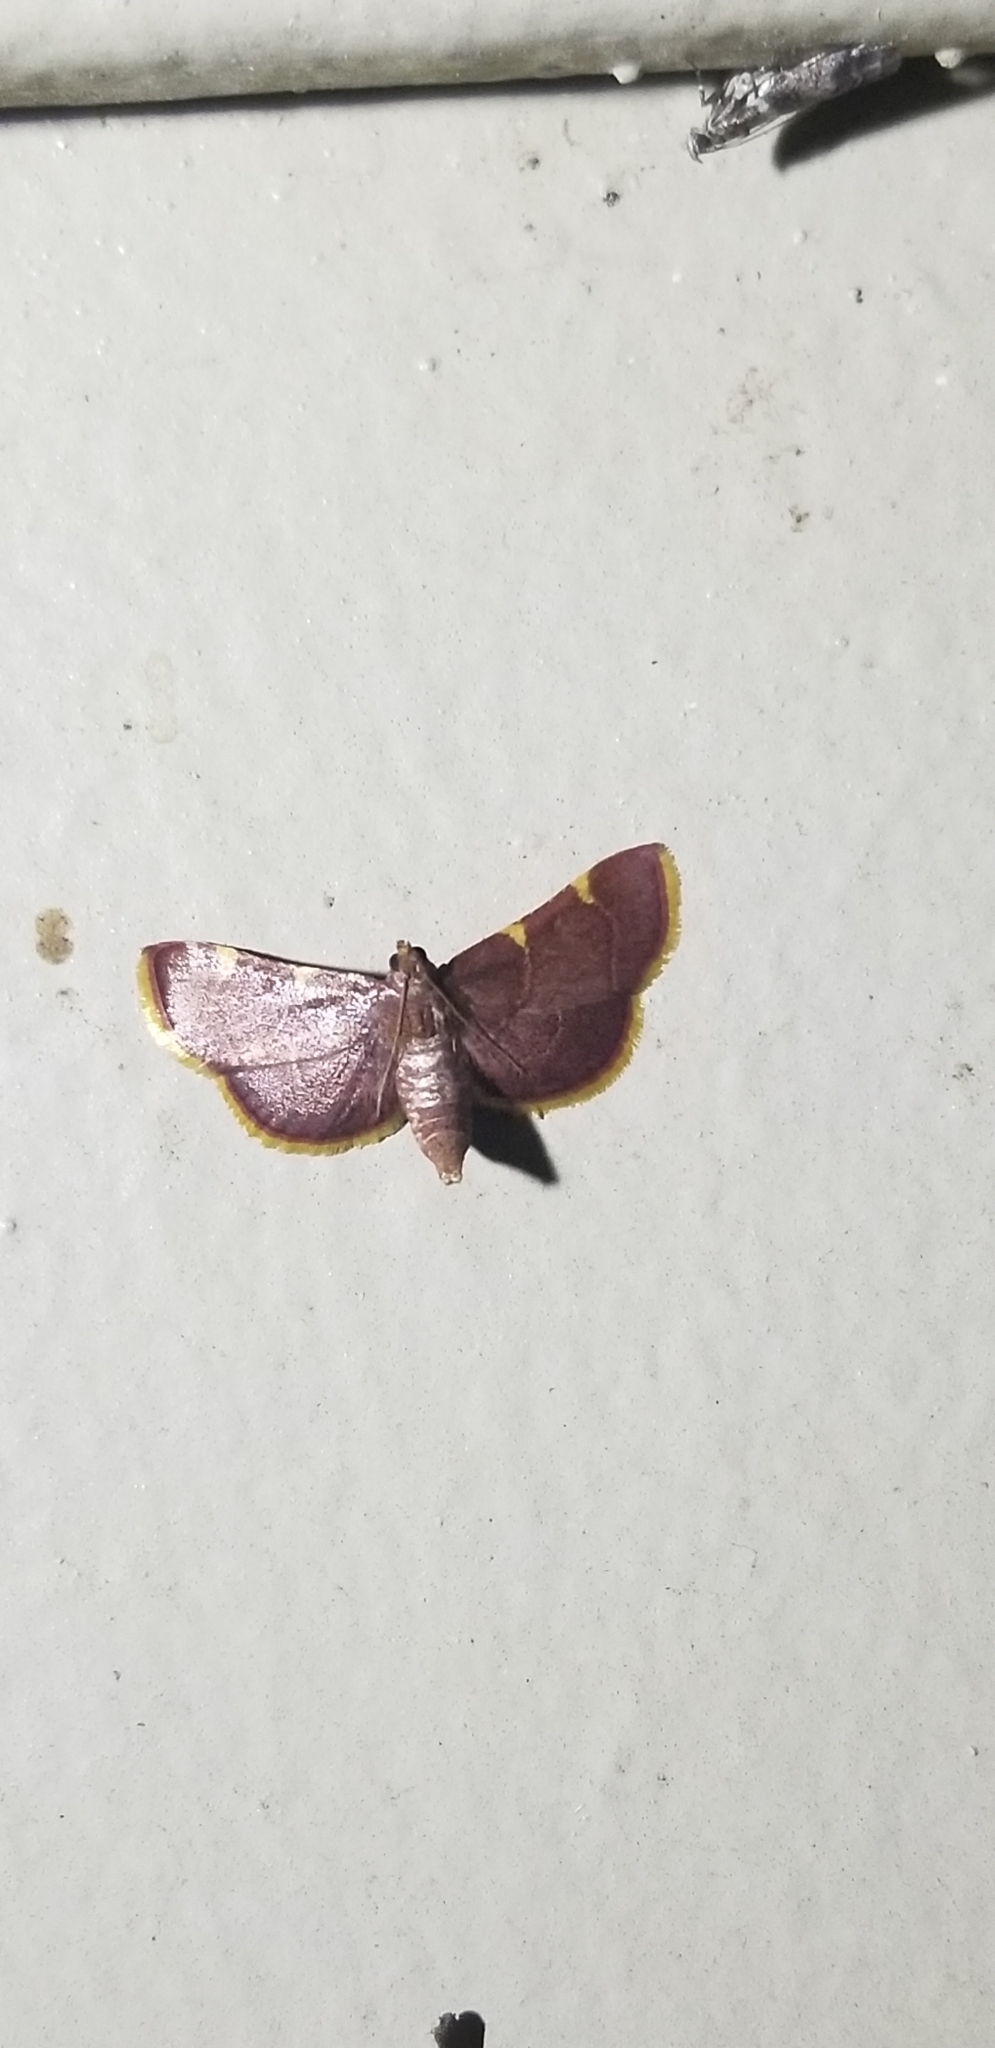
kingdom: Animalia
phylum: Arthropoda
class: Insecta
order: Lepidoptera
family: Pyralidae
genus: Hypsopygia
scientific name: Hypsopygia olinalis
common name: Yellow-fringed dolichomia moth
